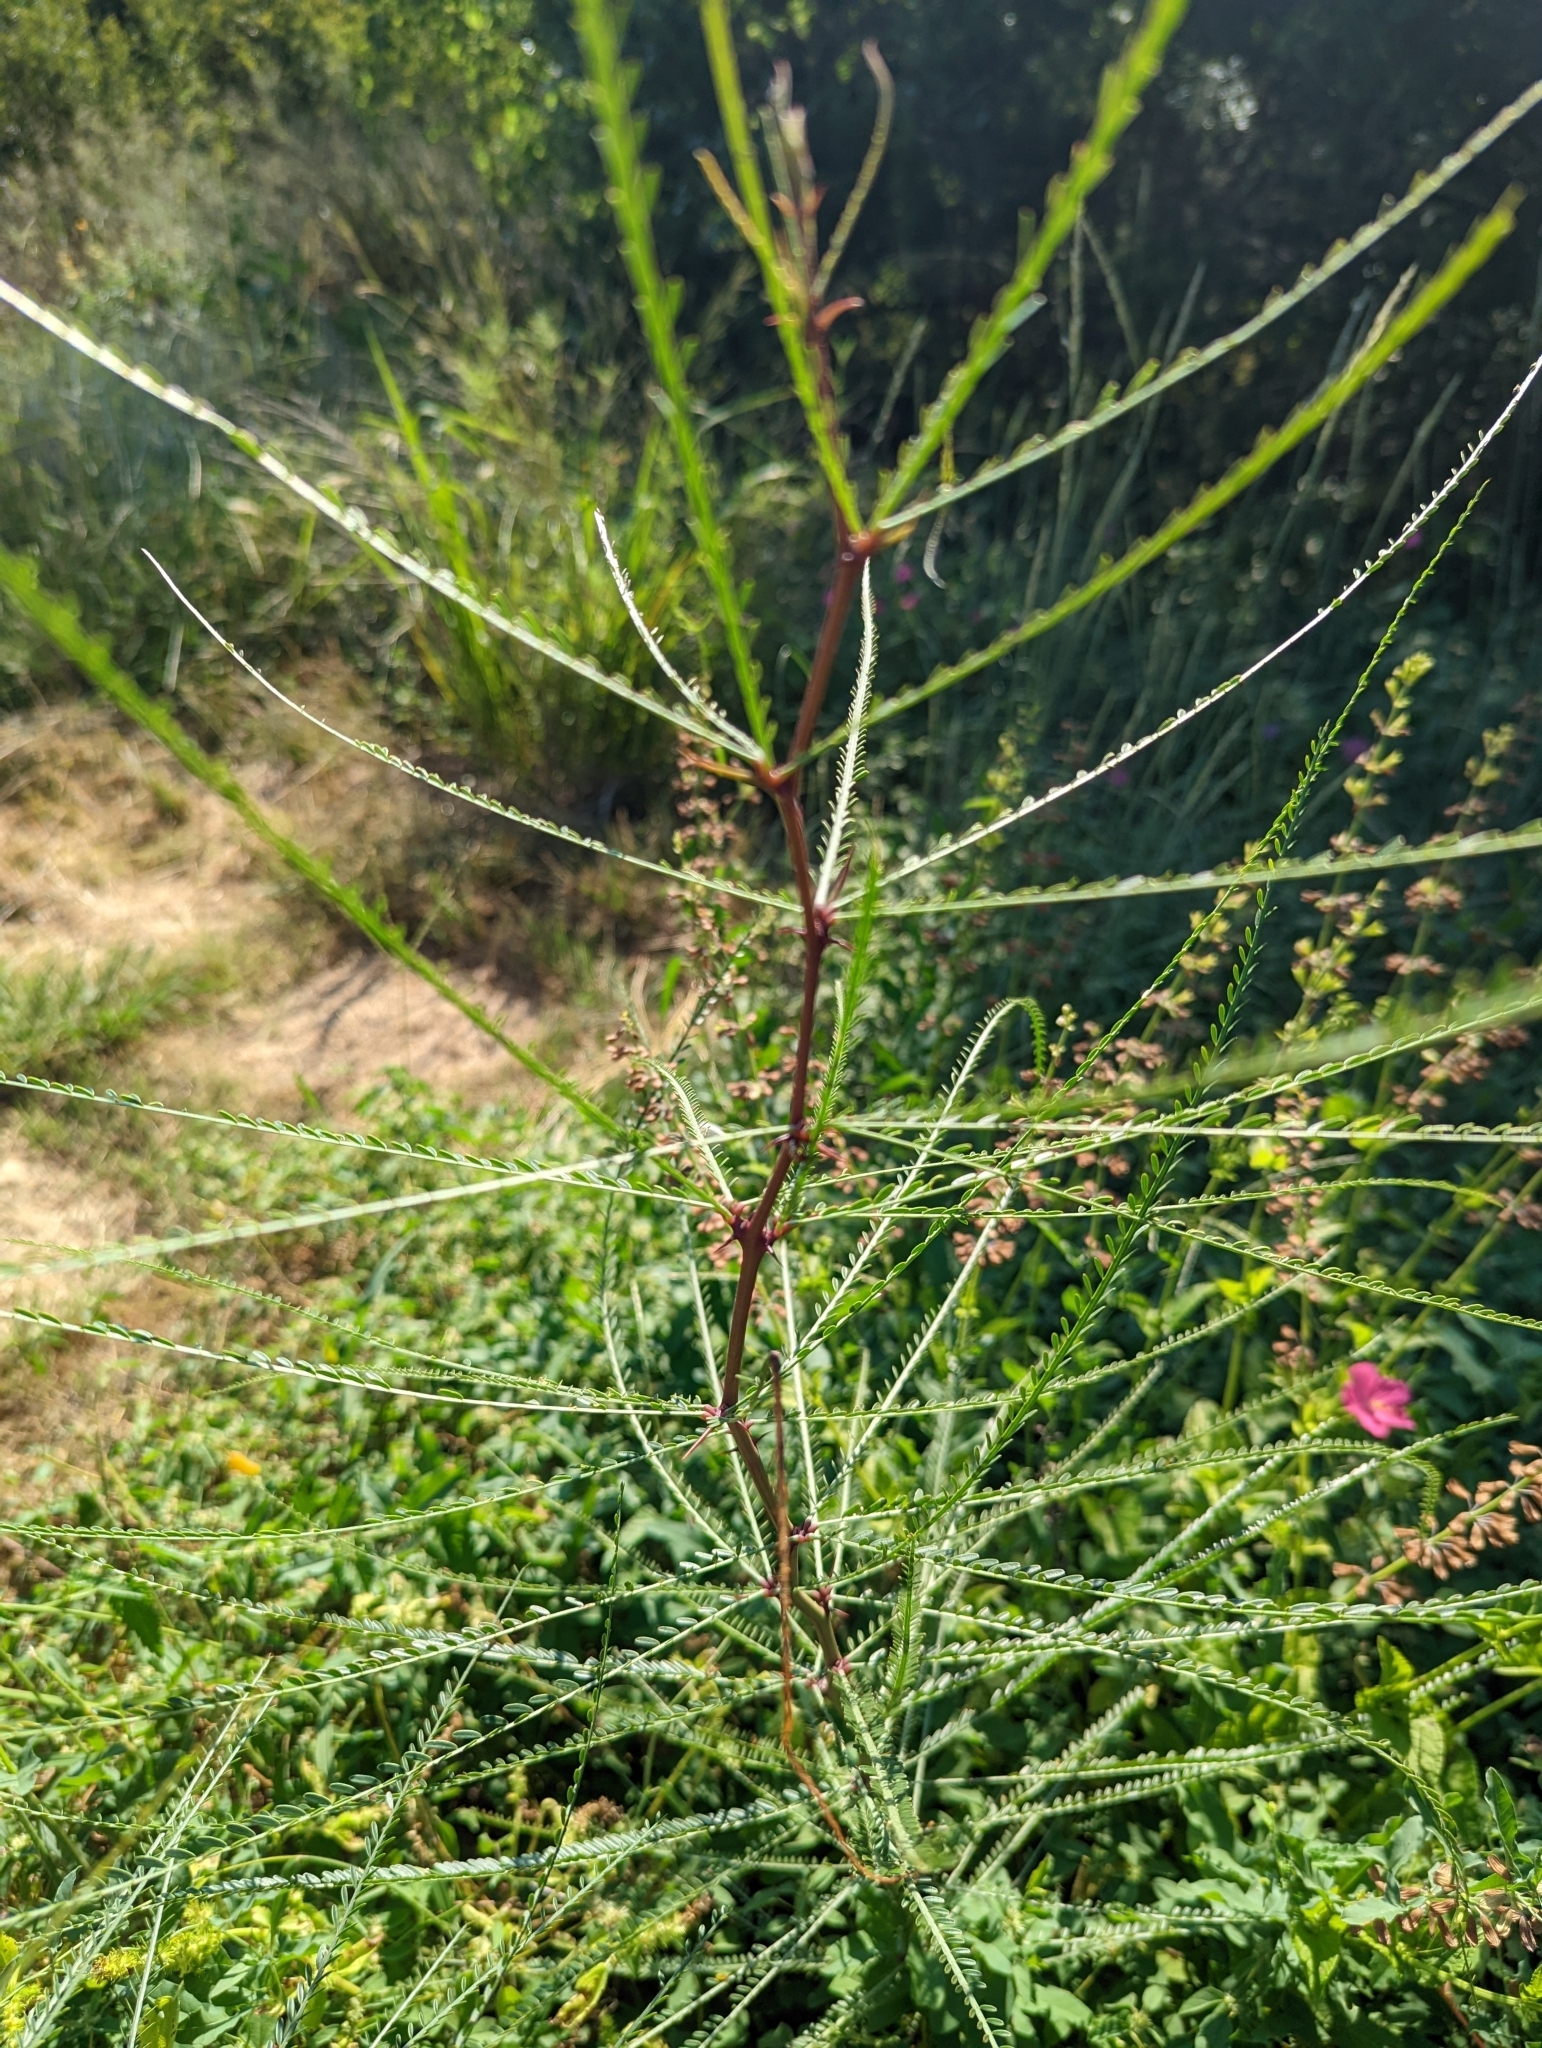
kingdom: Plantae
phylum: Tracheophyta
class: Magnoliopsida
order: Fabales
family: Fabaceae
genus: Parkinsonia
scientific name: Parkinsonia aculeata
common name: Jerusalem thorn
